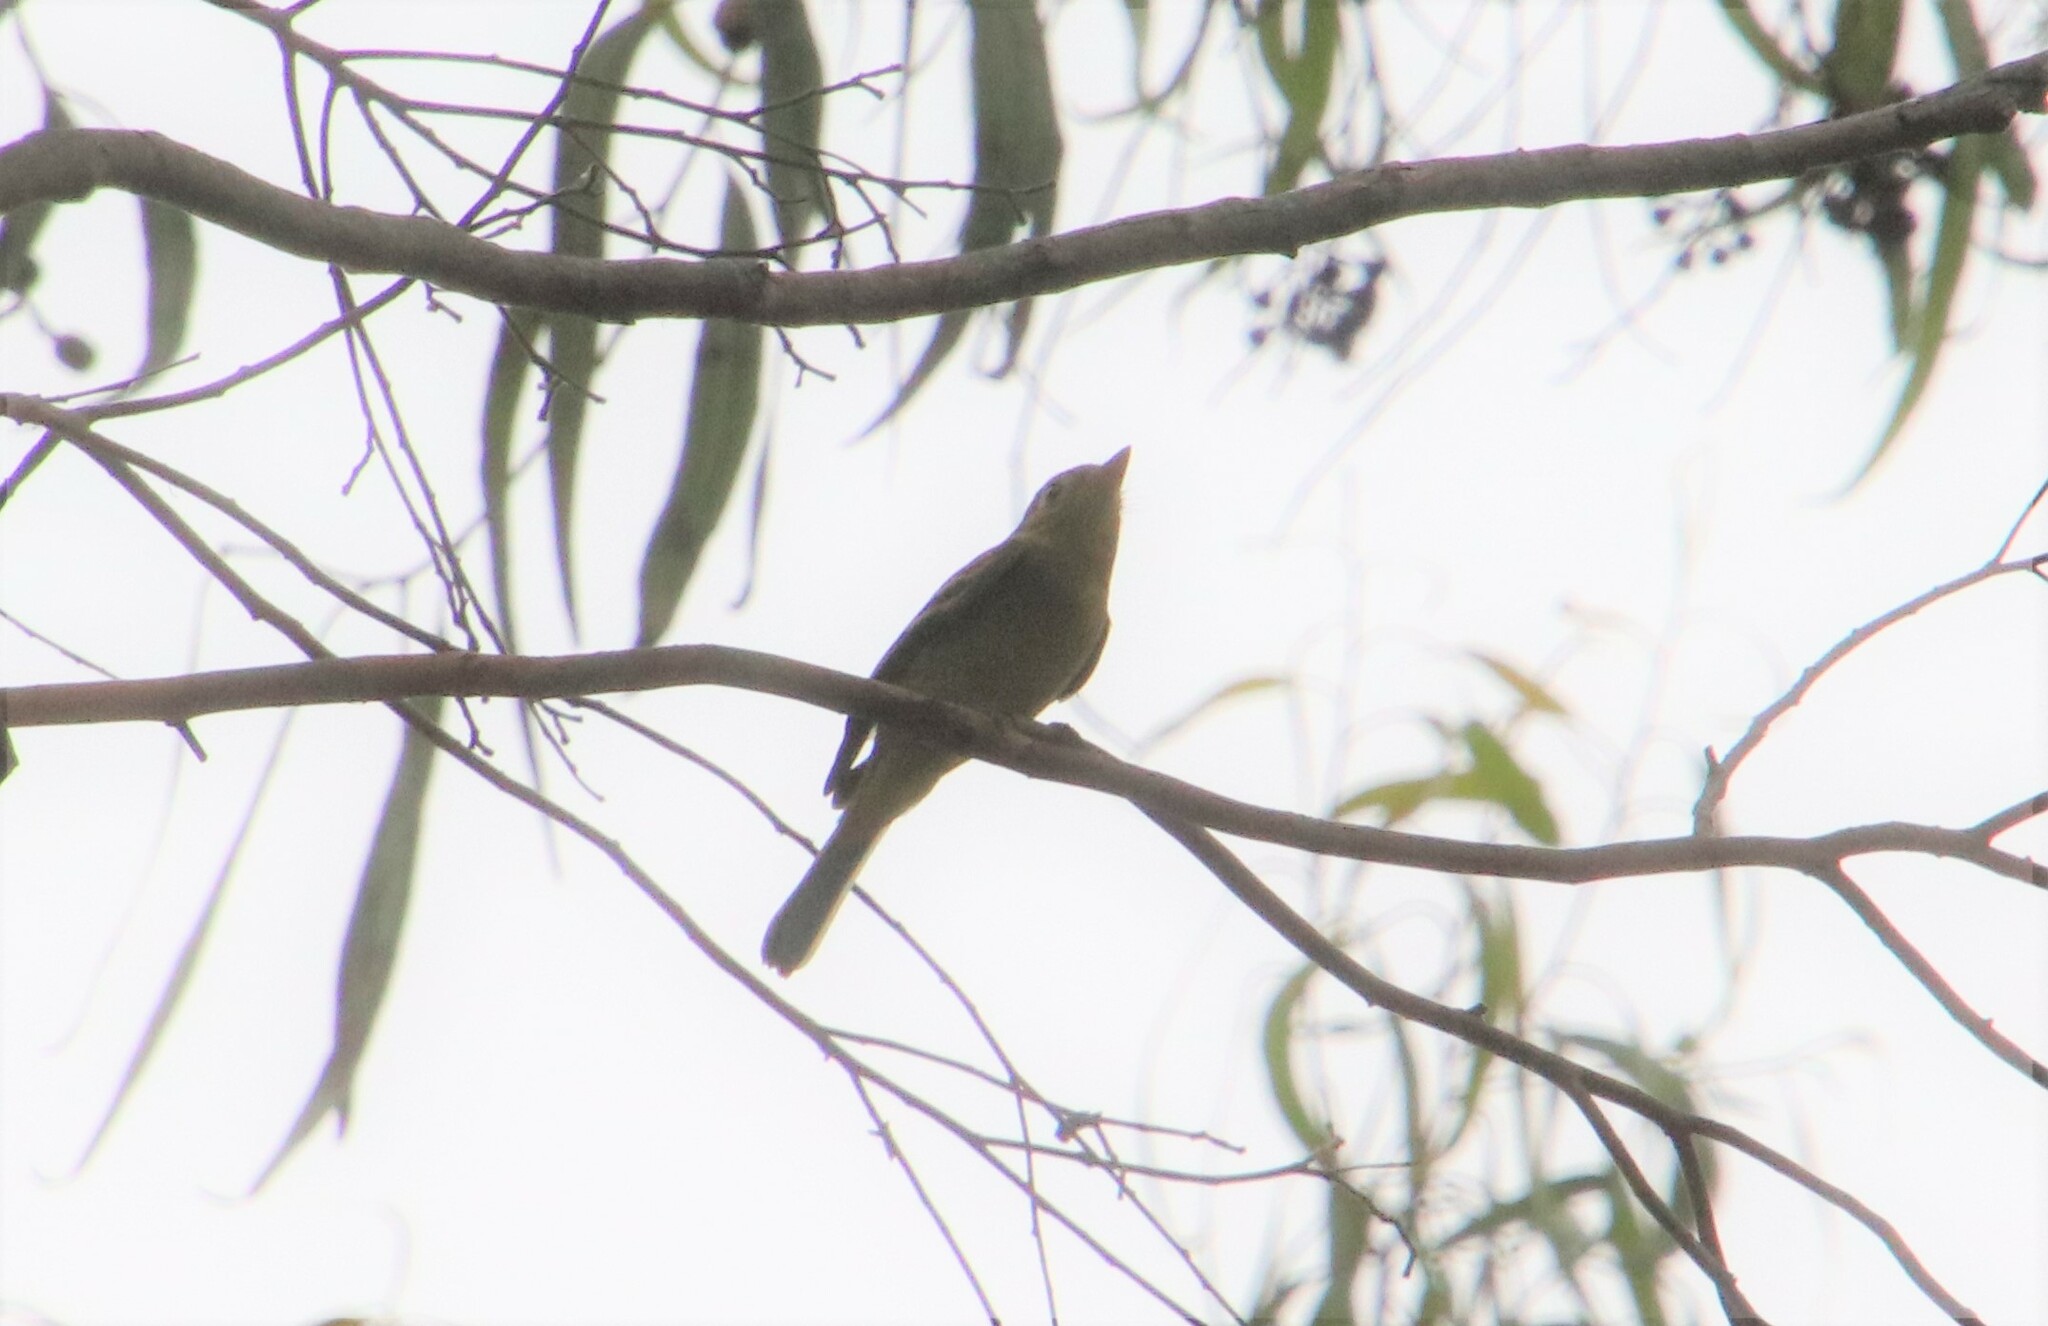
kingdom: Animalia
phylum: Chordata
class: Aves
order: Passeriformes
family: Tyrannidae
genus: Empidonax
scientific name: Empidonax difficilis
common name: Pacific-slope flycatcher
